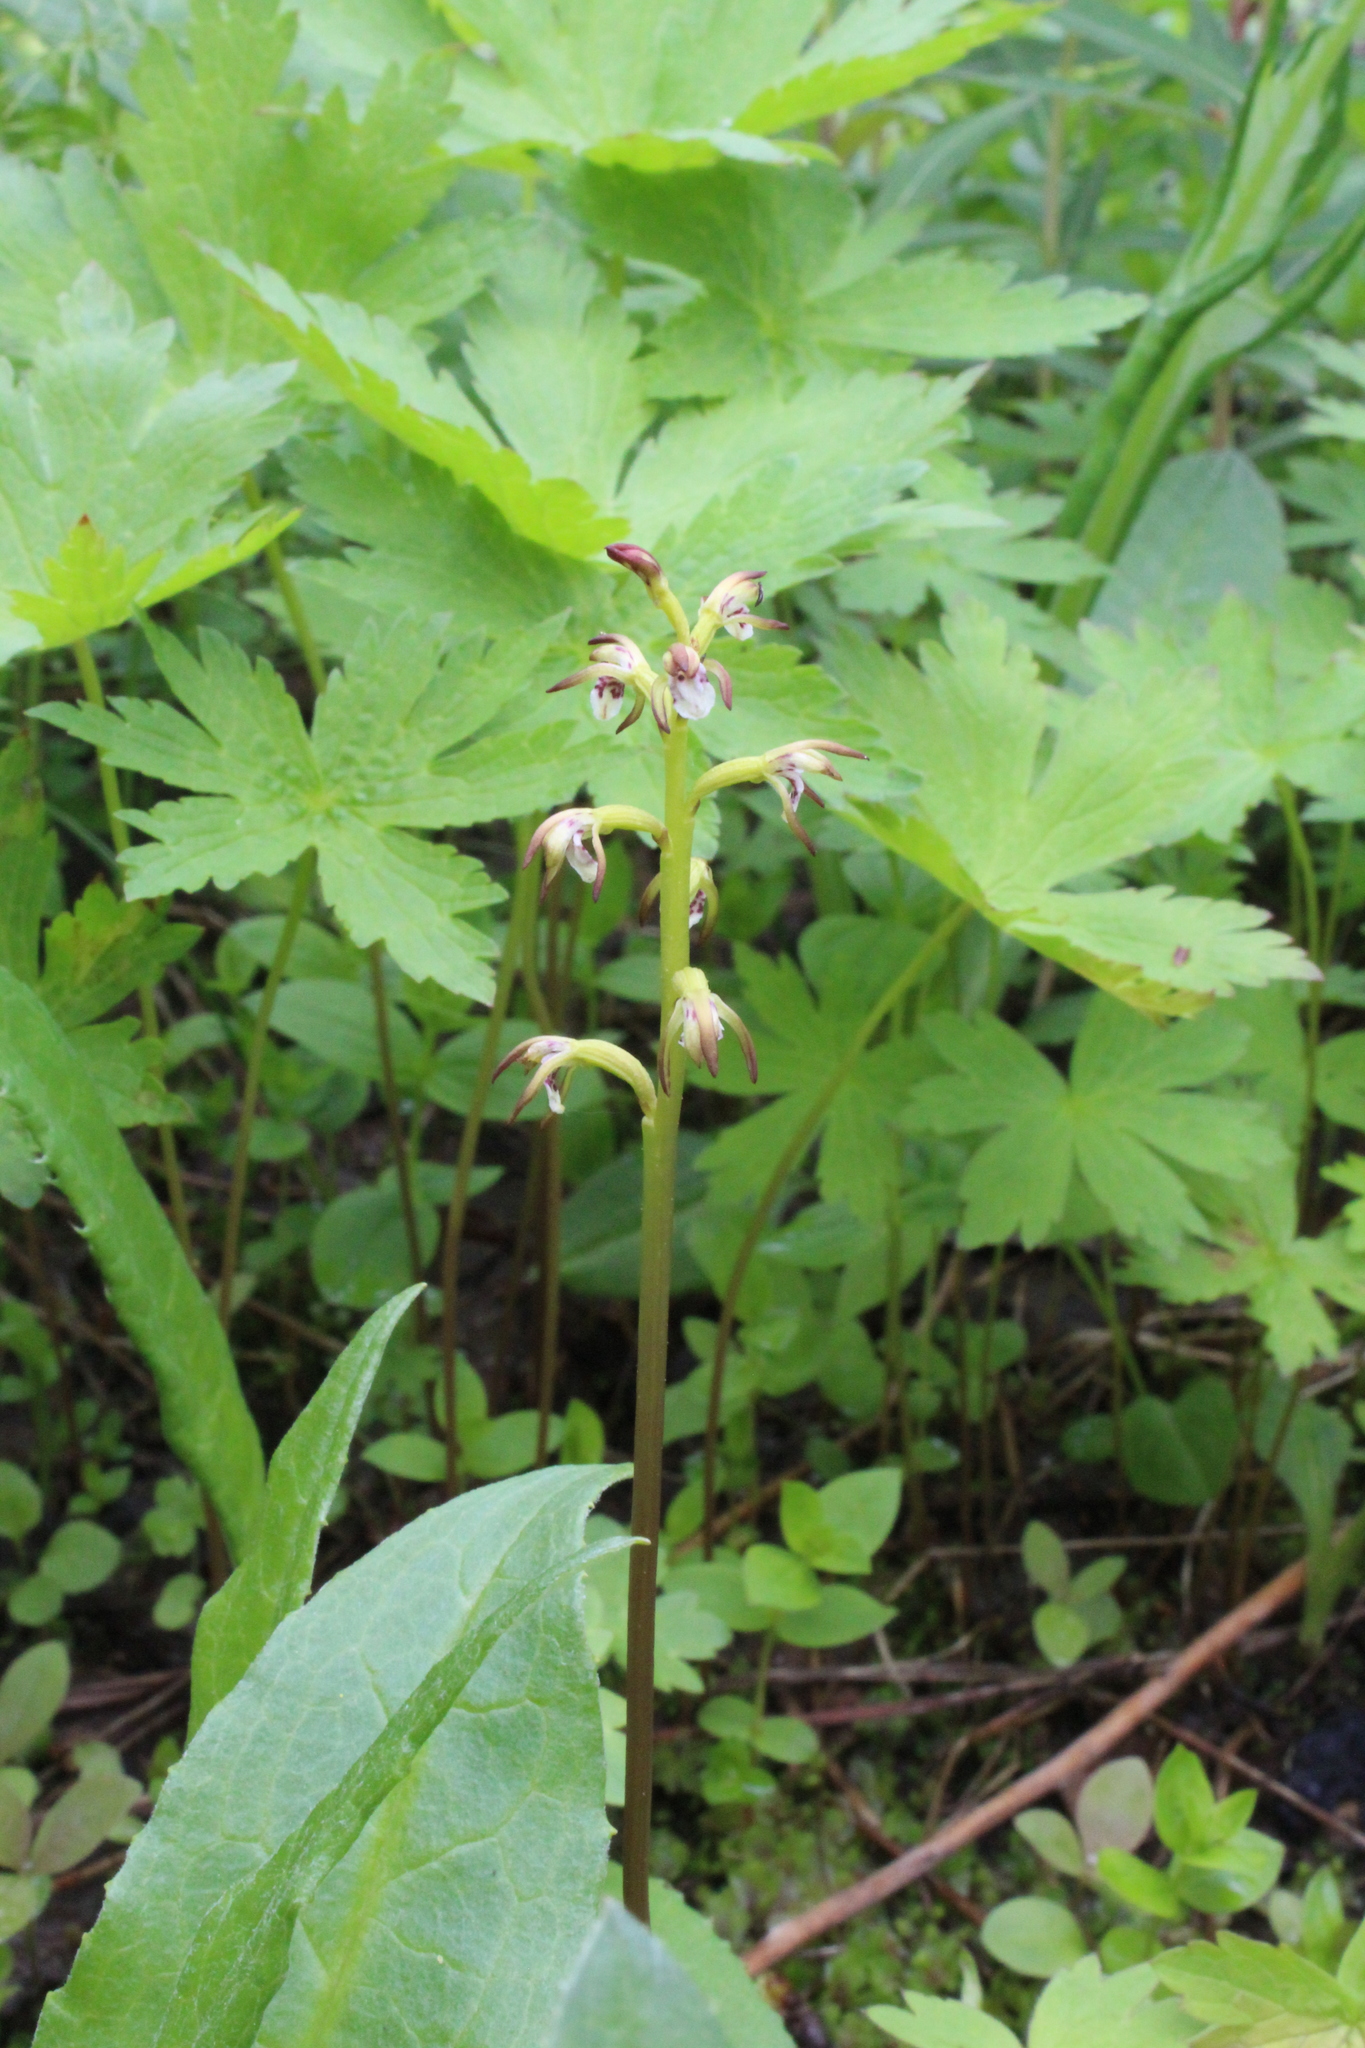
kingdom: Plantae
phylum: Tracheophyta
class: Liliopsida
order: Asparagales
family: Orchidaceae
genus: Corallorhiza
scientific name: Corallorhiza trifida
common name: Yellow coralroot
